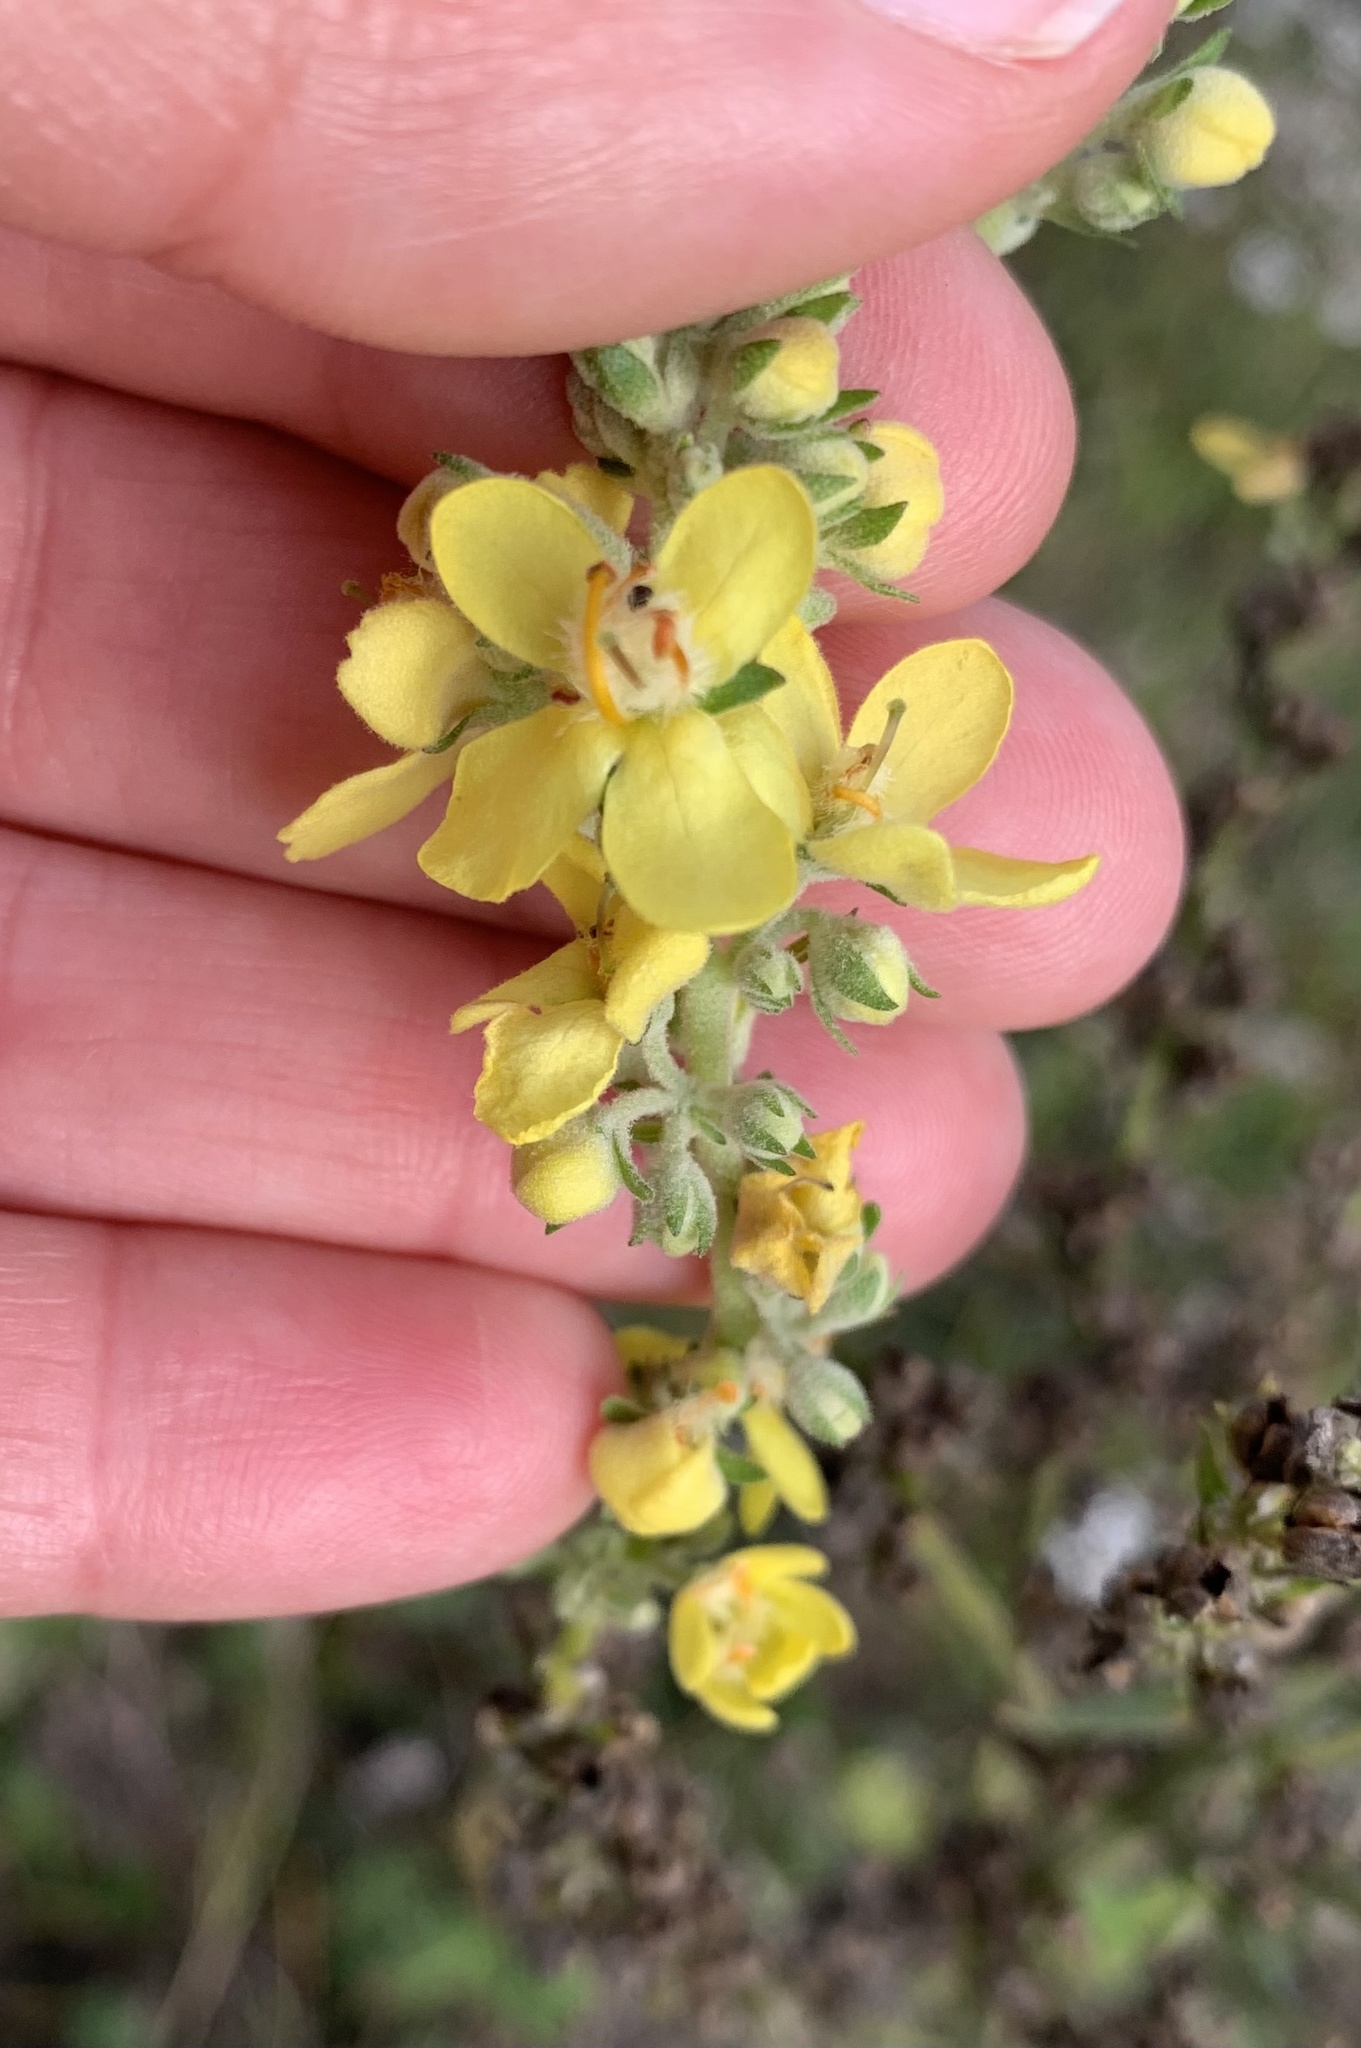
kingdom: Plantae
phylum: Tracheophyta
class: Magnoliopsida
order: Lamiales
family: Scrophulariaceae
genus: Verbascum
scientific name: Verbascum lychnitis
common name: White mullein
